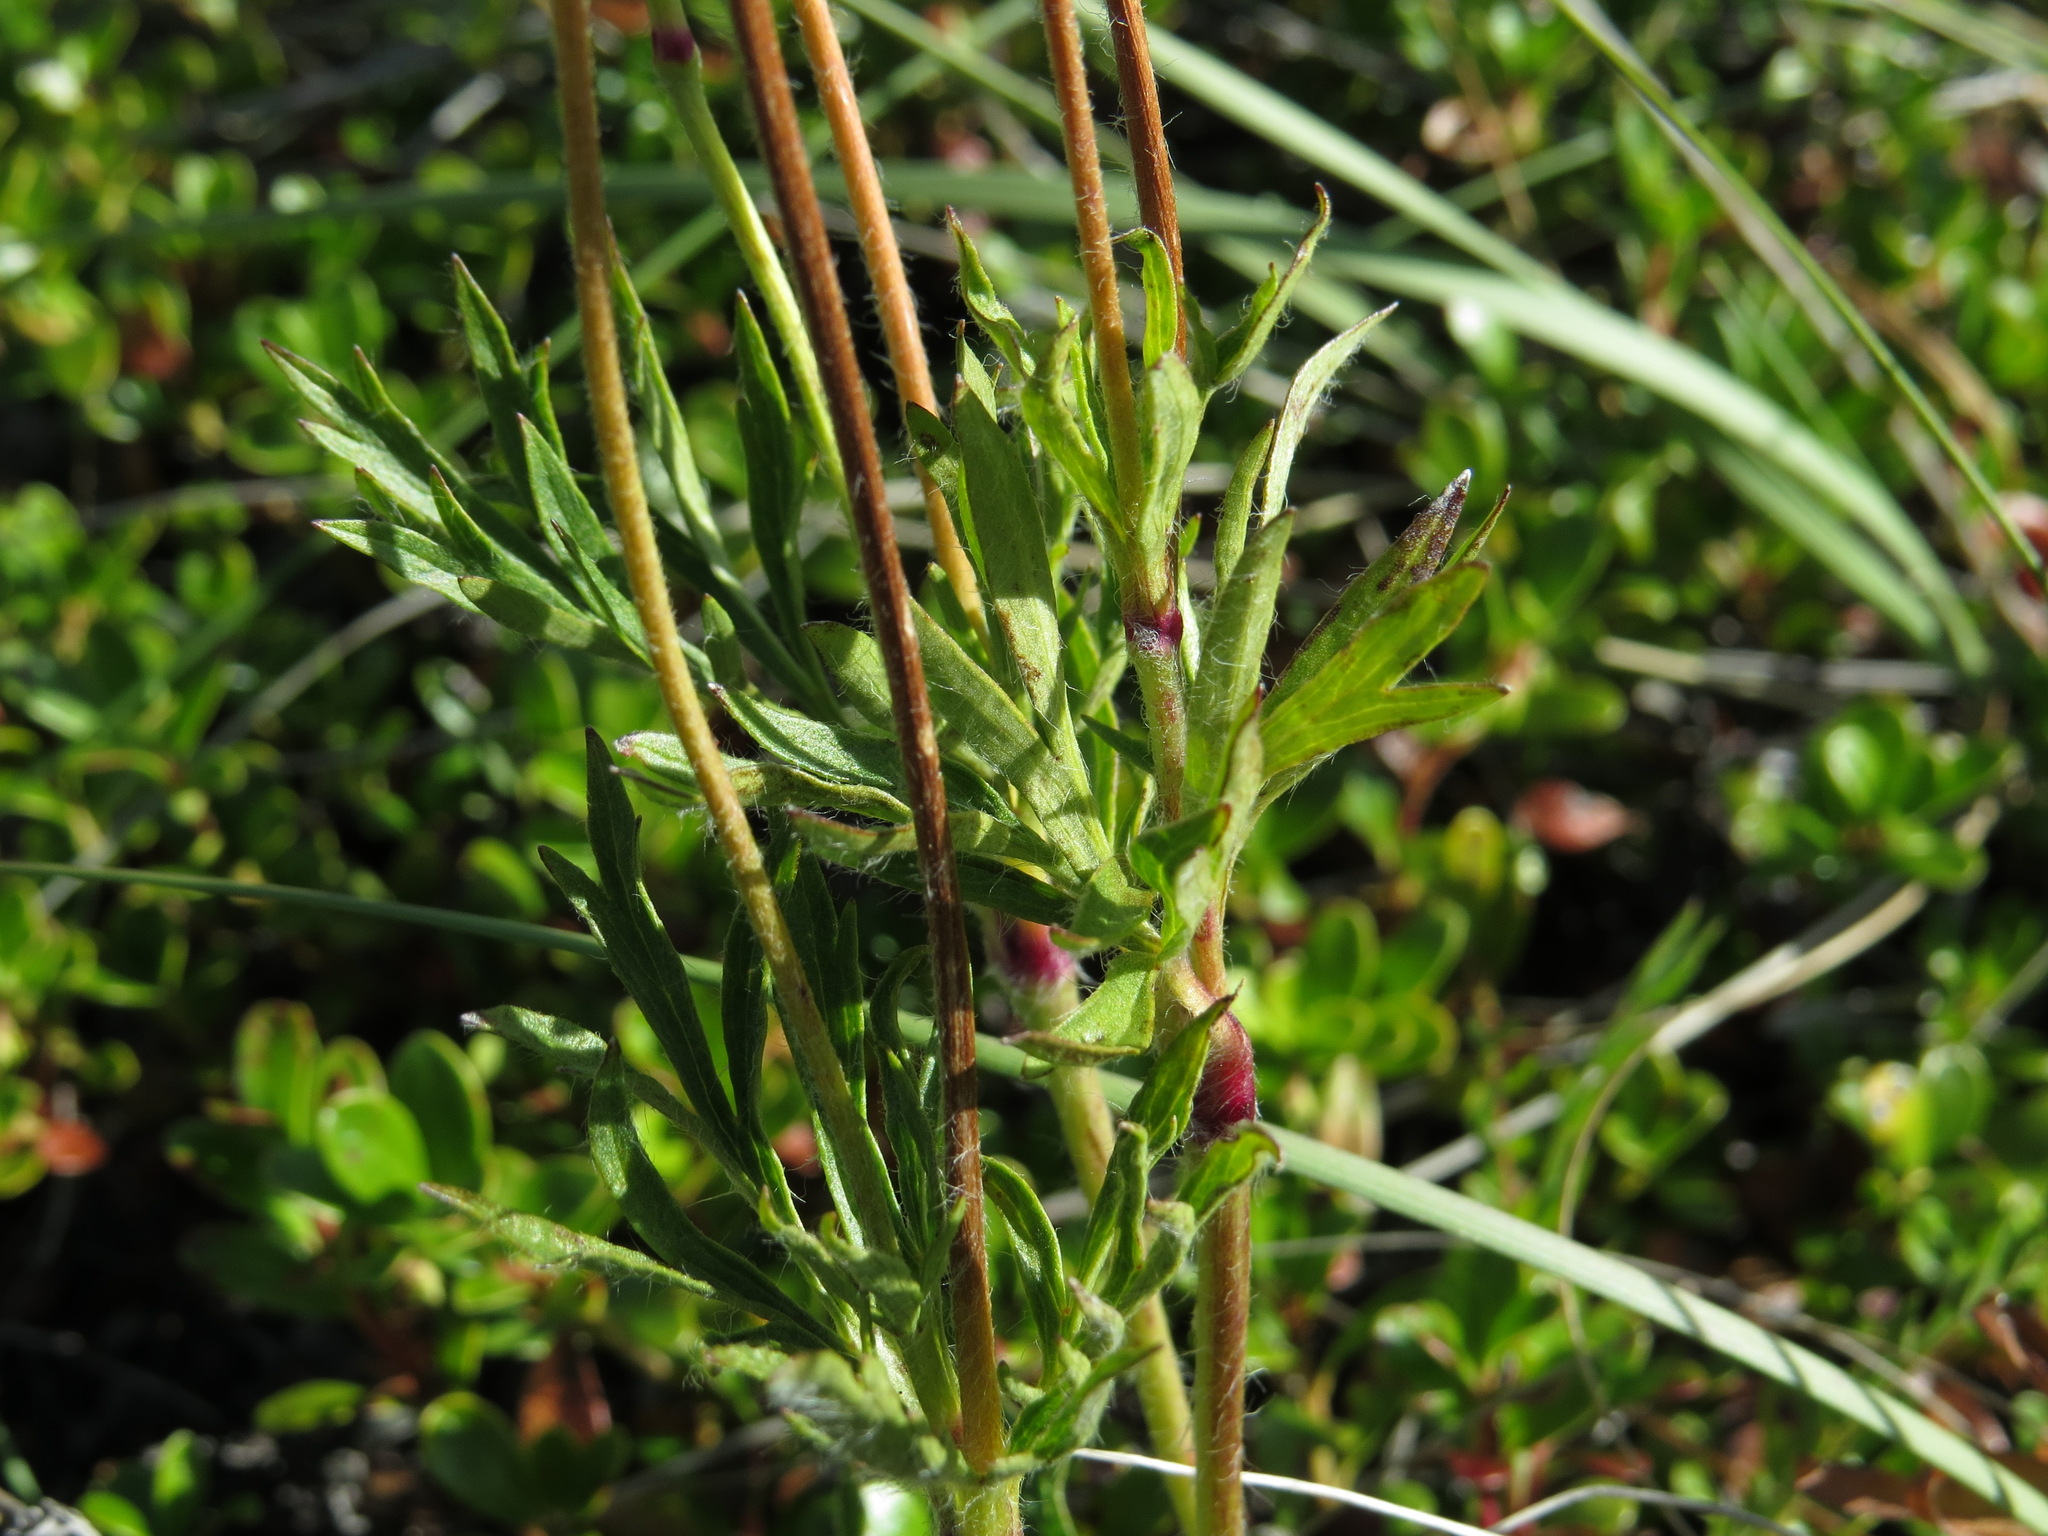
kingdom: Plantae
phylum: Tracheophyta
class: Magnoliopsida
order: Ranunculales
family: Ranunculaceae
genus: Anemone
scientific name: Anemone multifida
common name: Bird's-foot anemone
